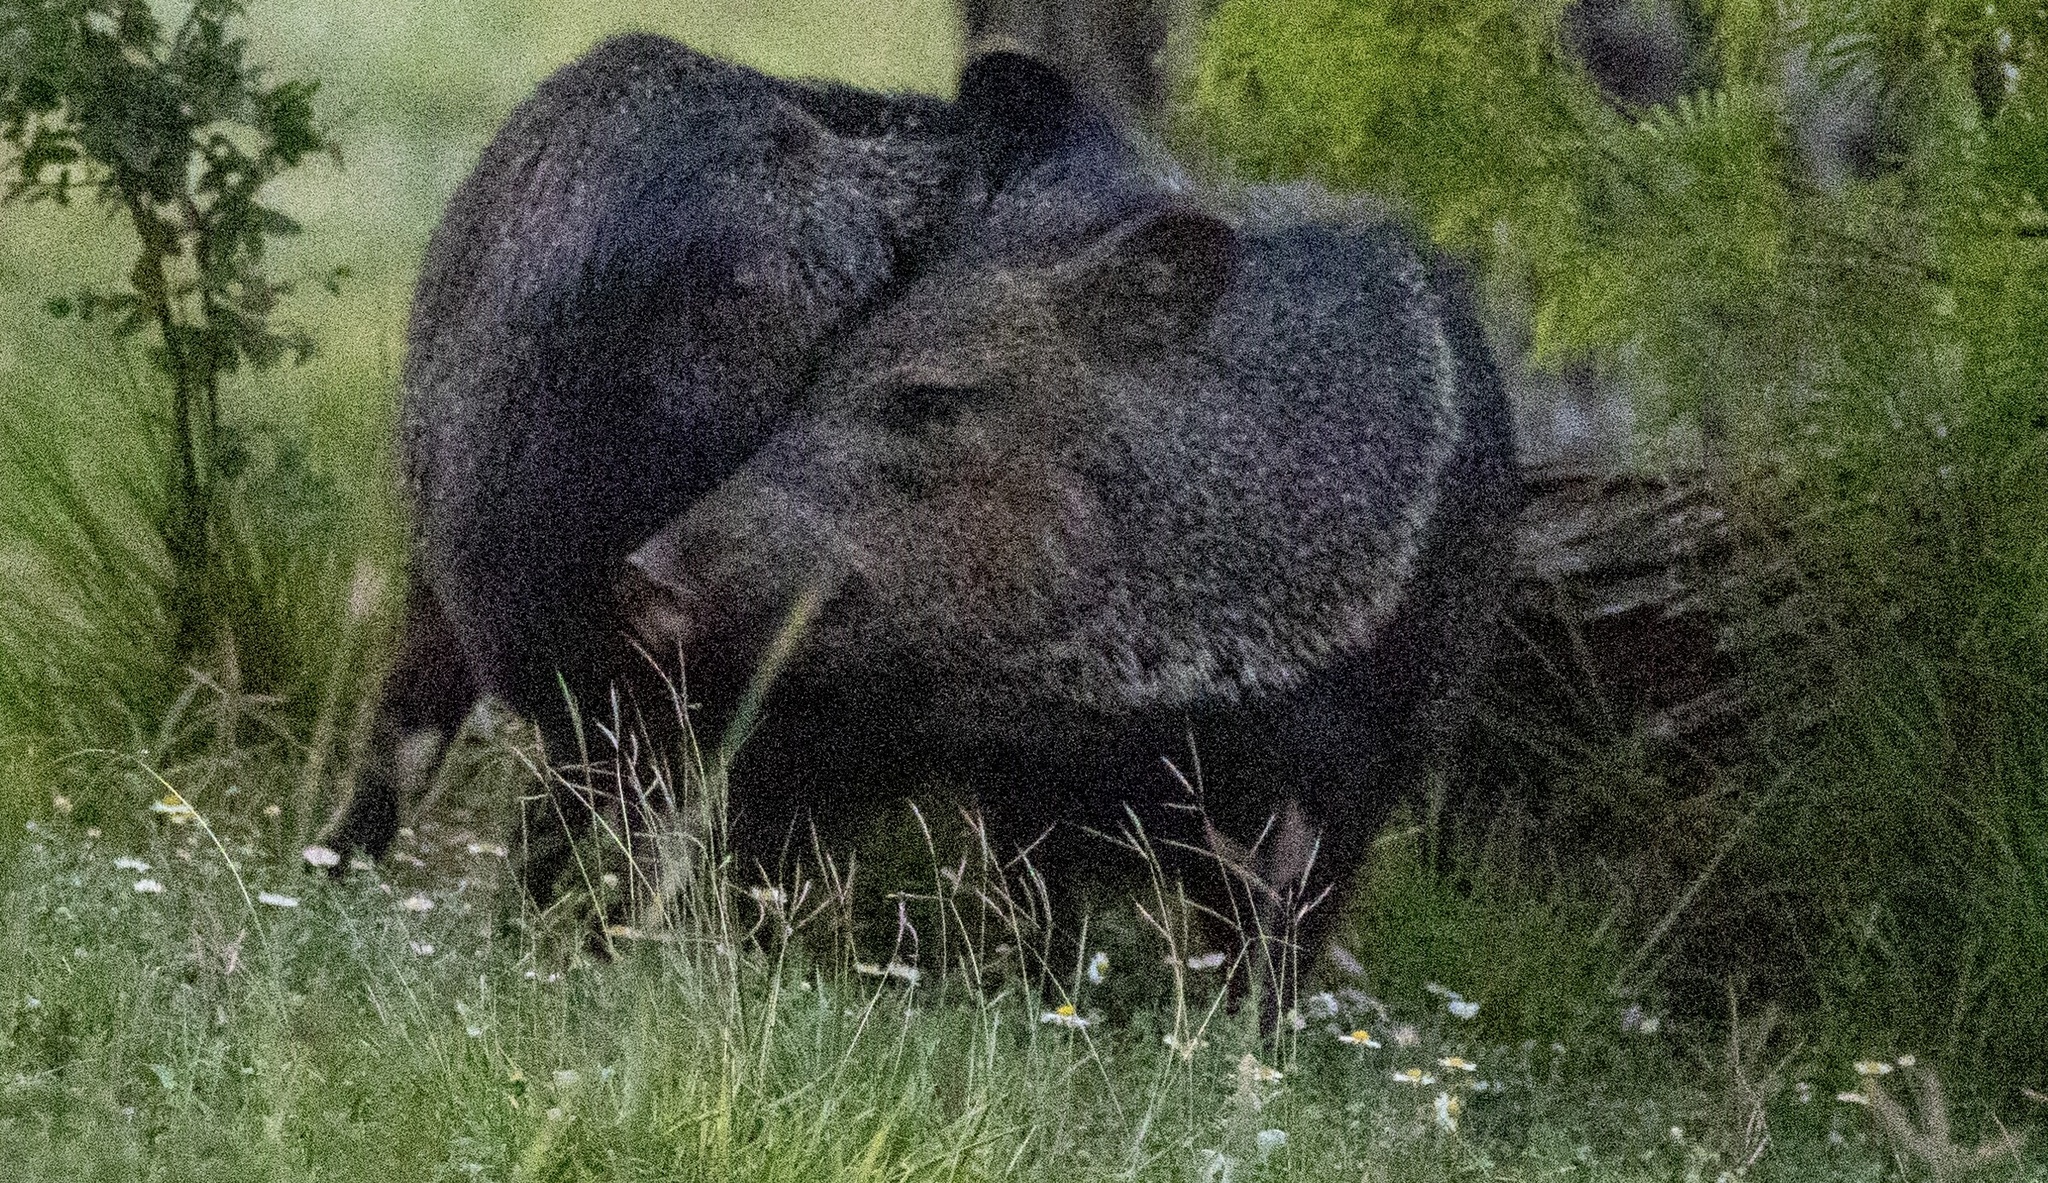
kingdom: Animalia
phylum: Chordata
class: Mammalia
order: Artiodactyla
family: Tayassuidae
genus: Pecari
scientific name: Pecari tajacu
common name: Collared peccary
